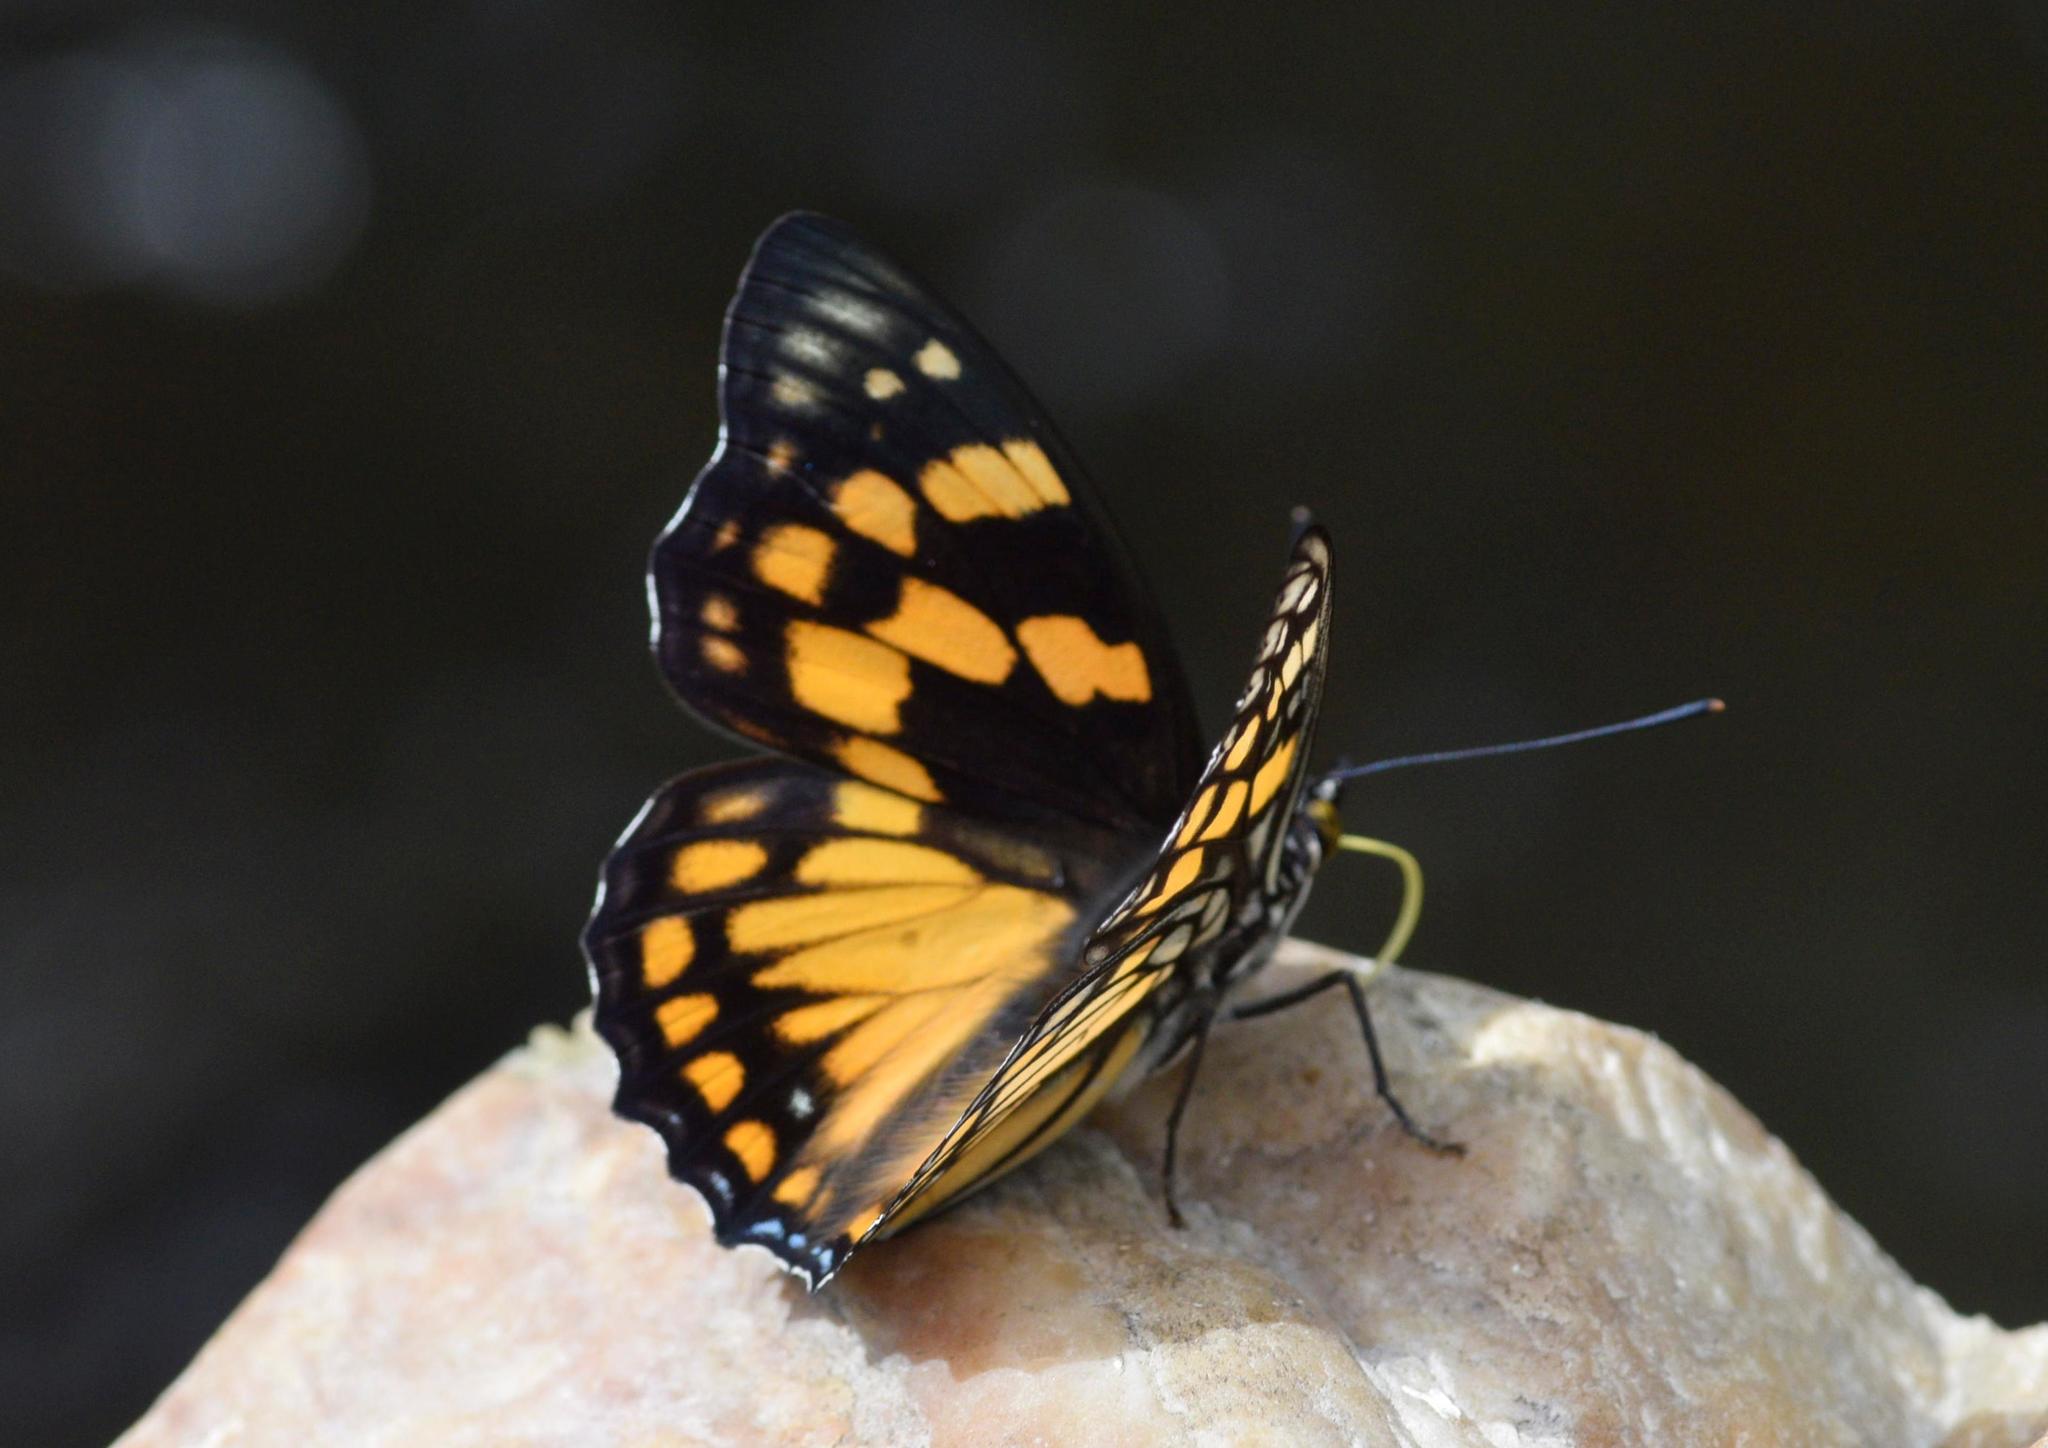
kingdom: Animalia
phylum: Arthropoda
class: Insecta
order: Lepidoptera
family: Nymphalidae
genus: Sephisa
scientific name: Sephisa dichroa
